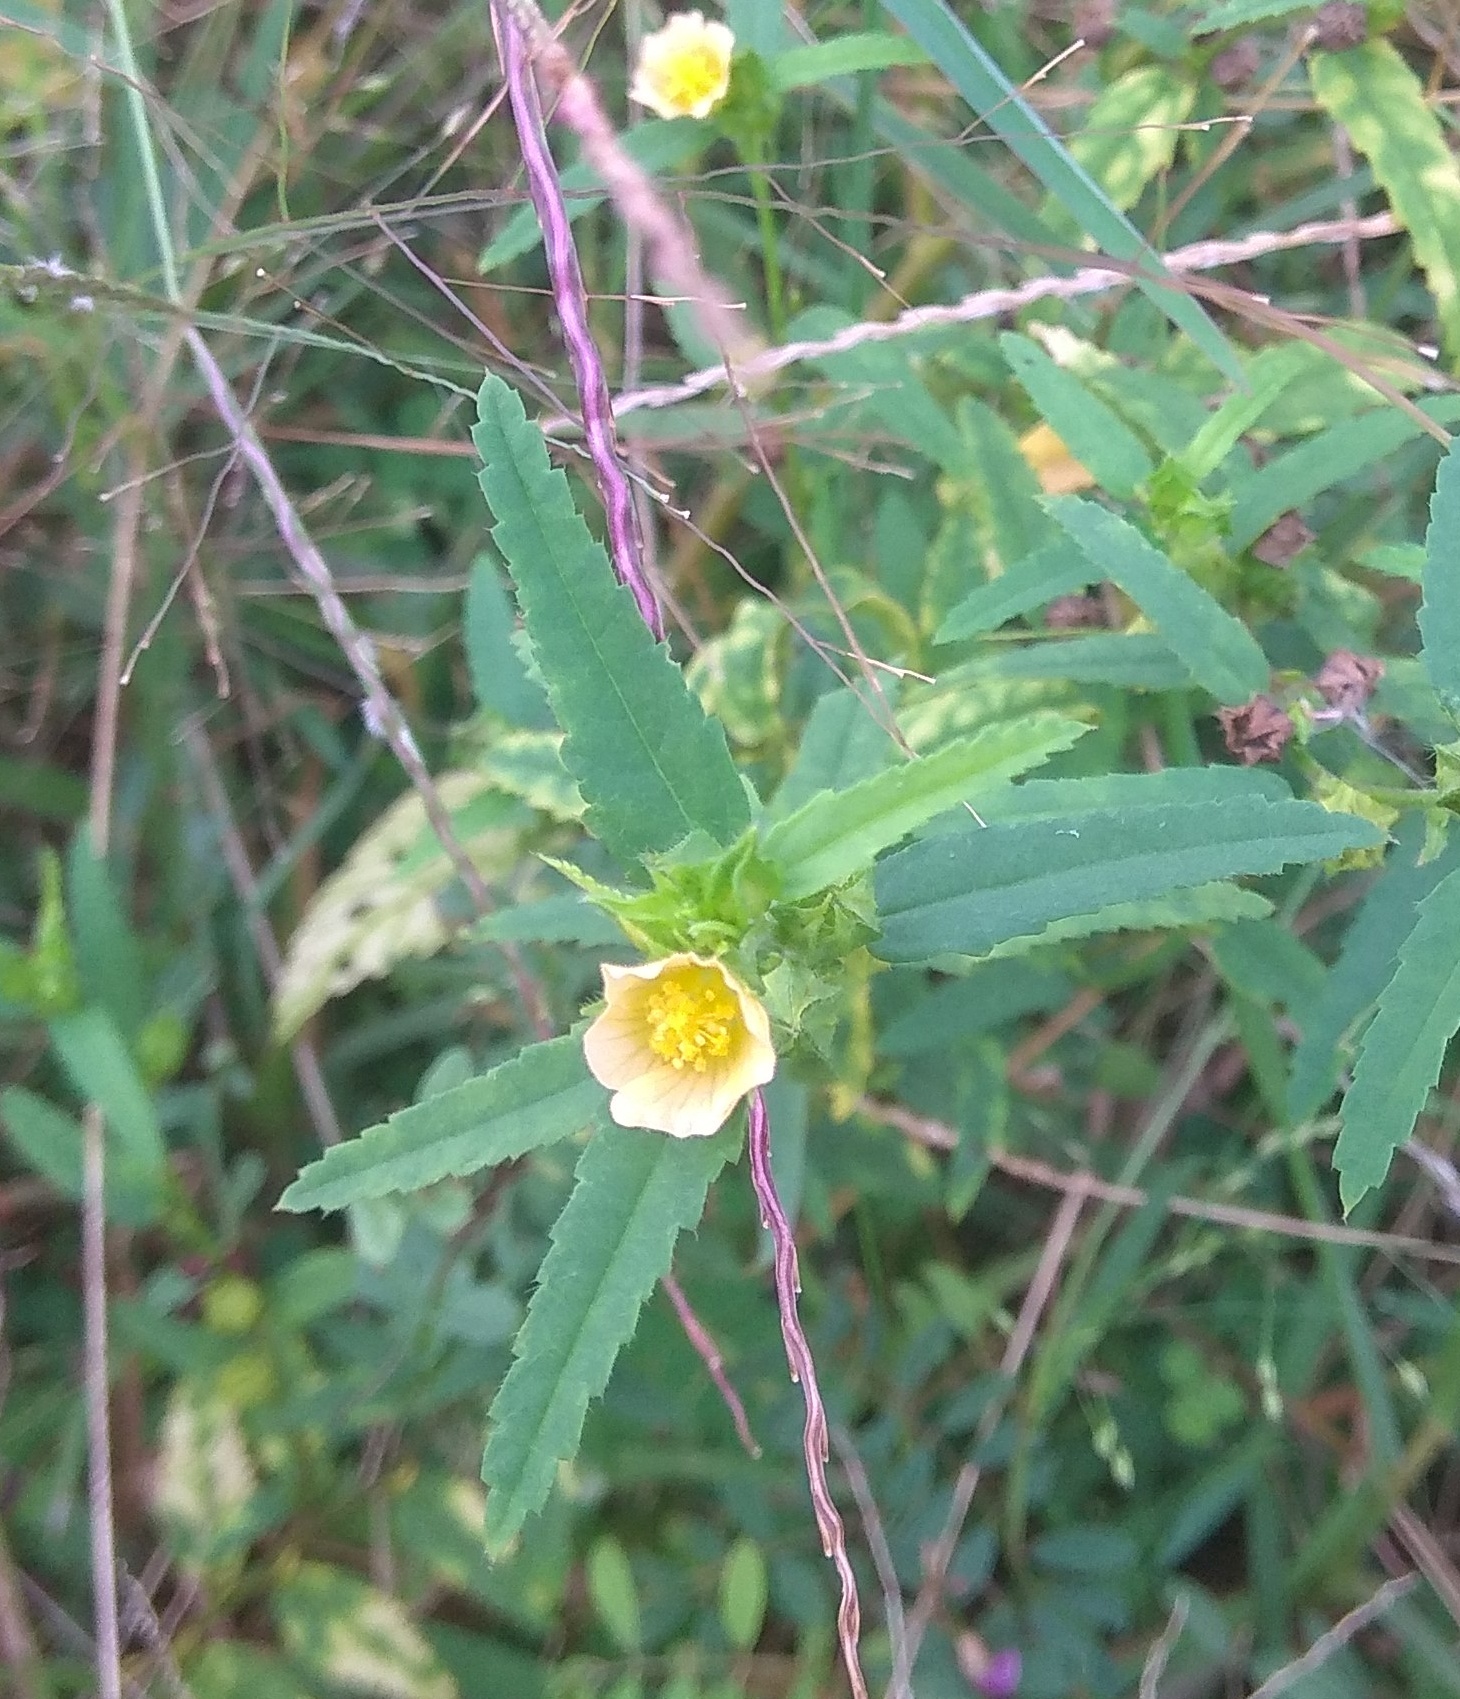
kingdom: Plantae
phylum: Tracheophyta
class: Magnoliopsida
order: Malvales
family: Malvaceae
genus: Sida
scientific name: Sida acuta
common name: Common wireweed
